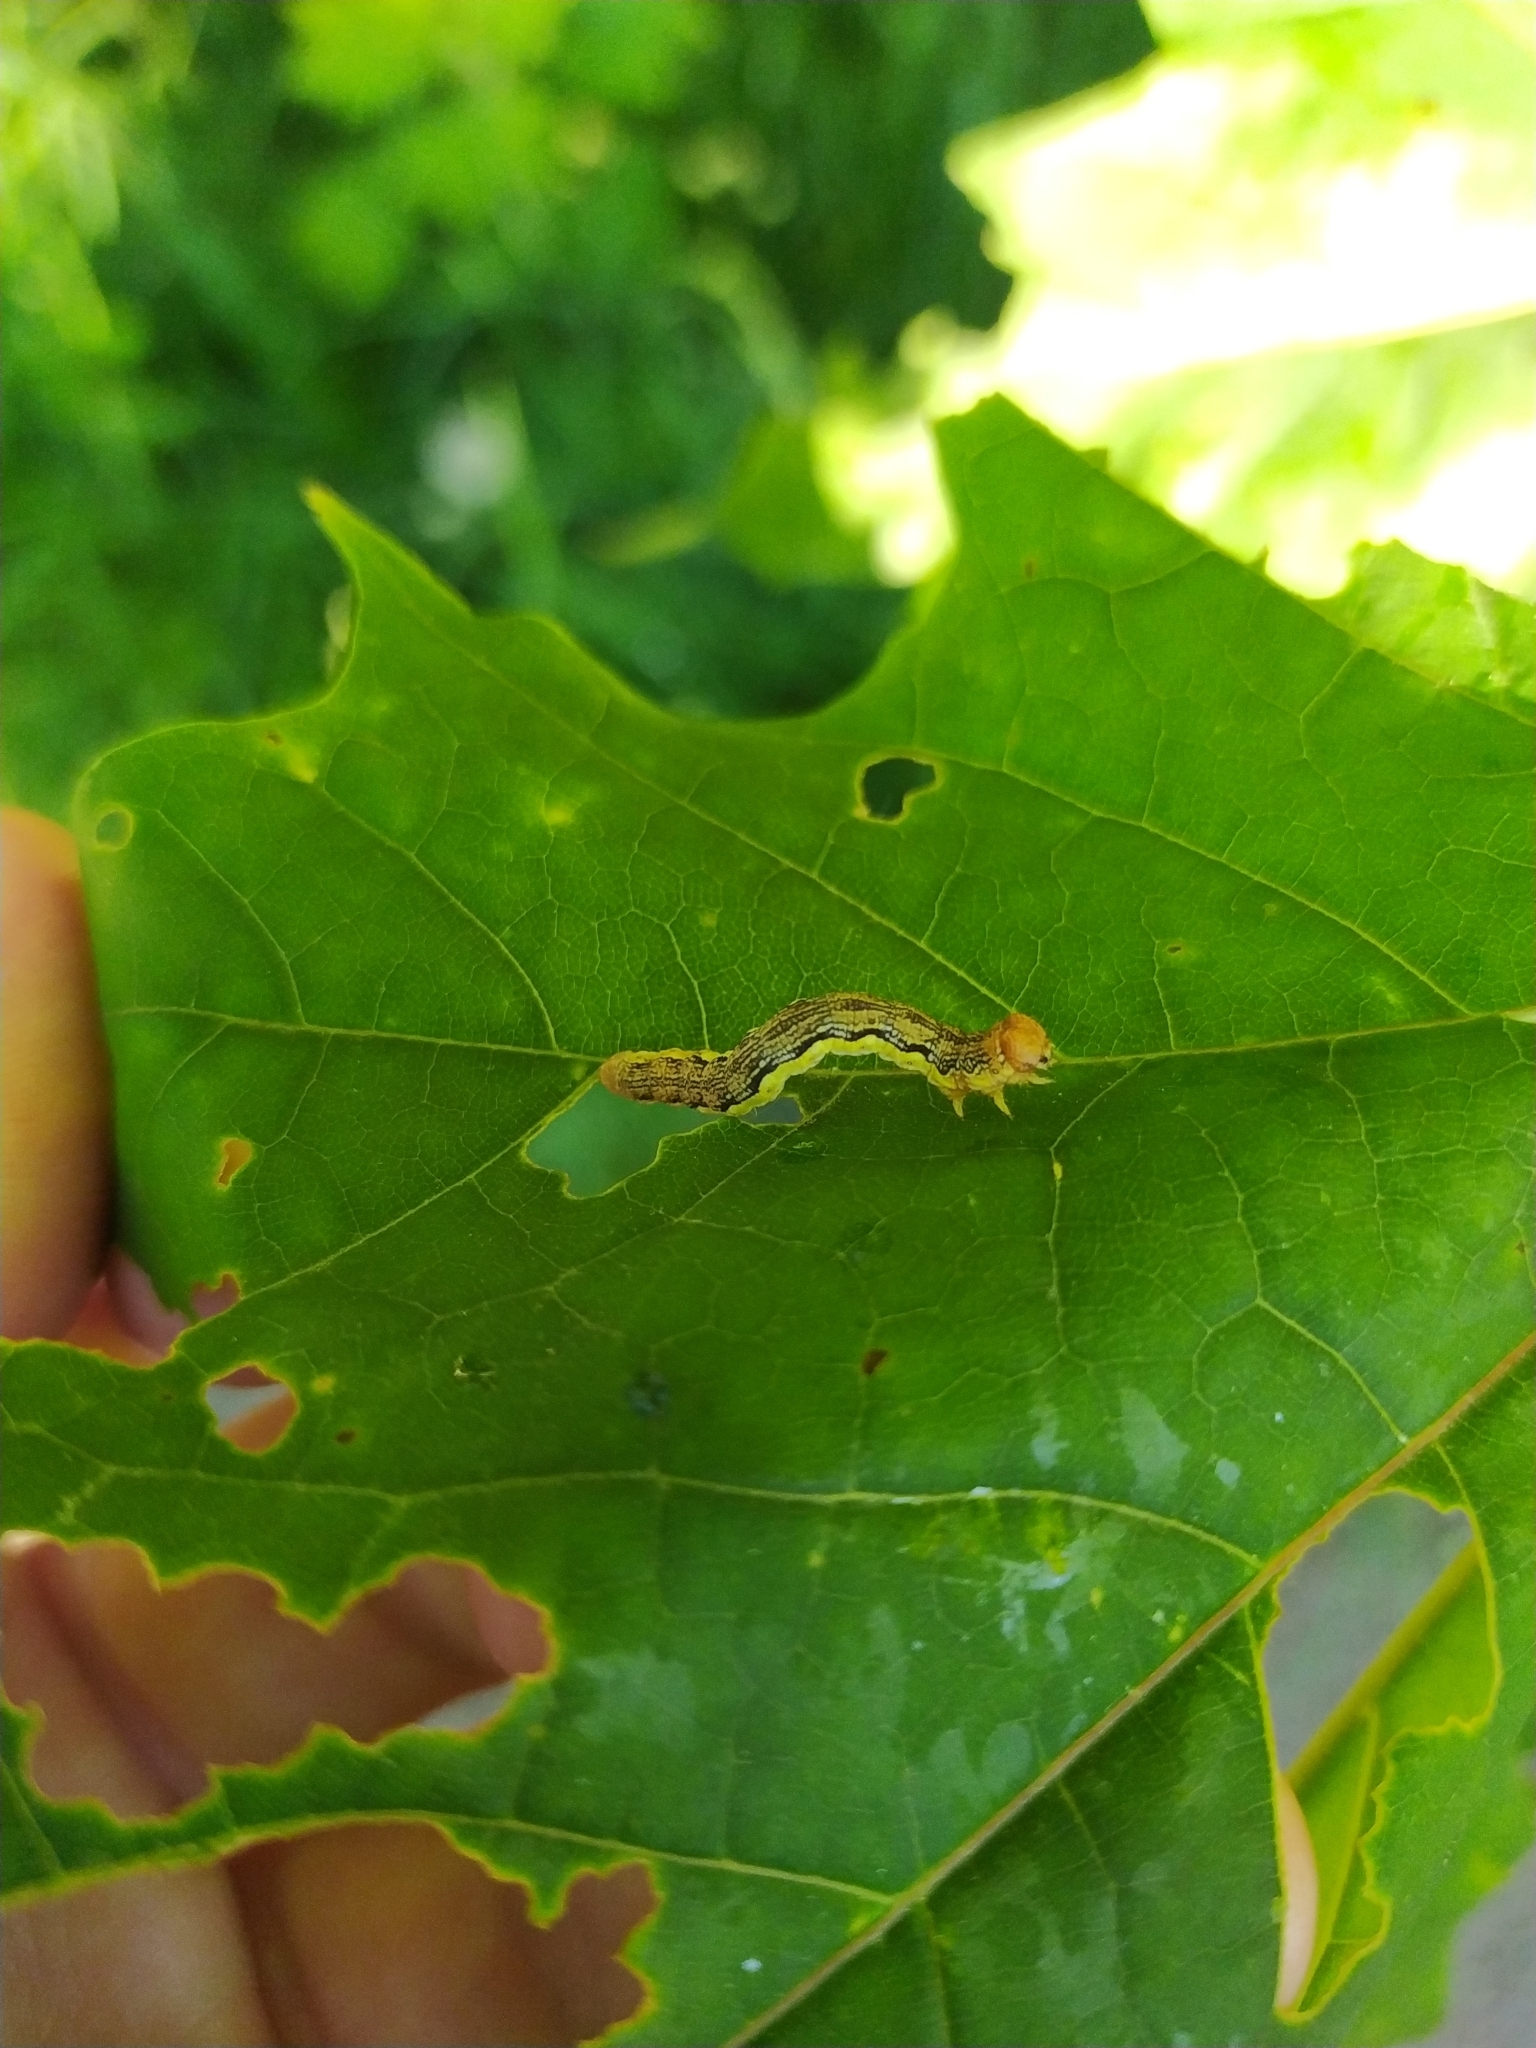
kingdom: Animalia
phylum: Arthropoda
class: Insecta
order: Lepidoptera
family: Geometridae
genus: Erannis
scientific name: Erannis defoliaria
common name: Mottled umber
